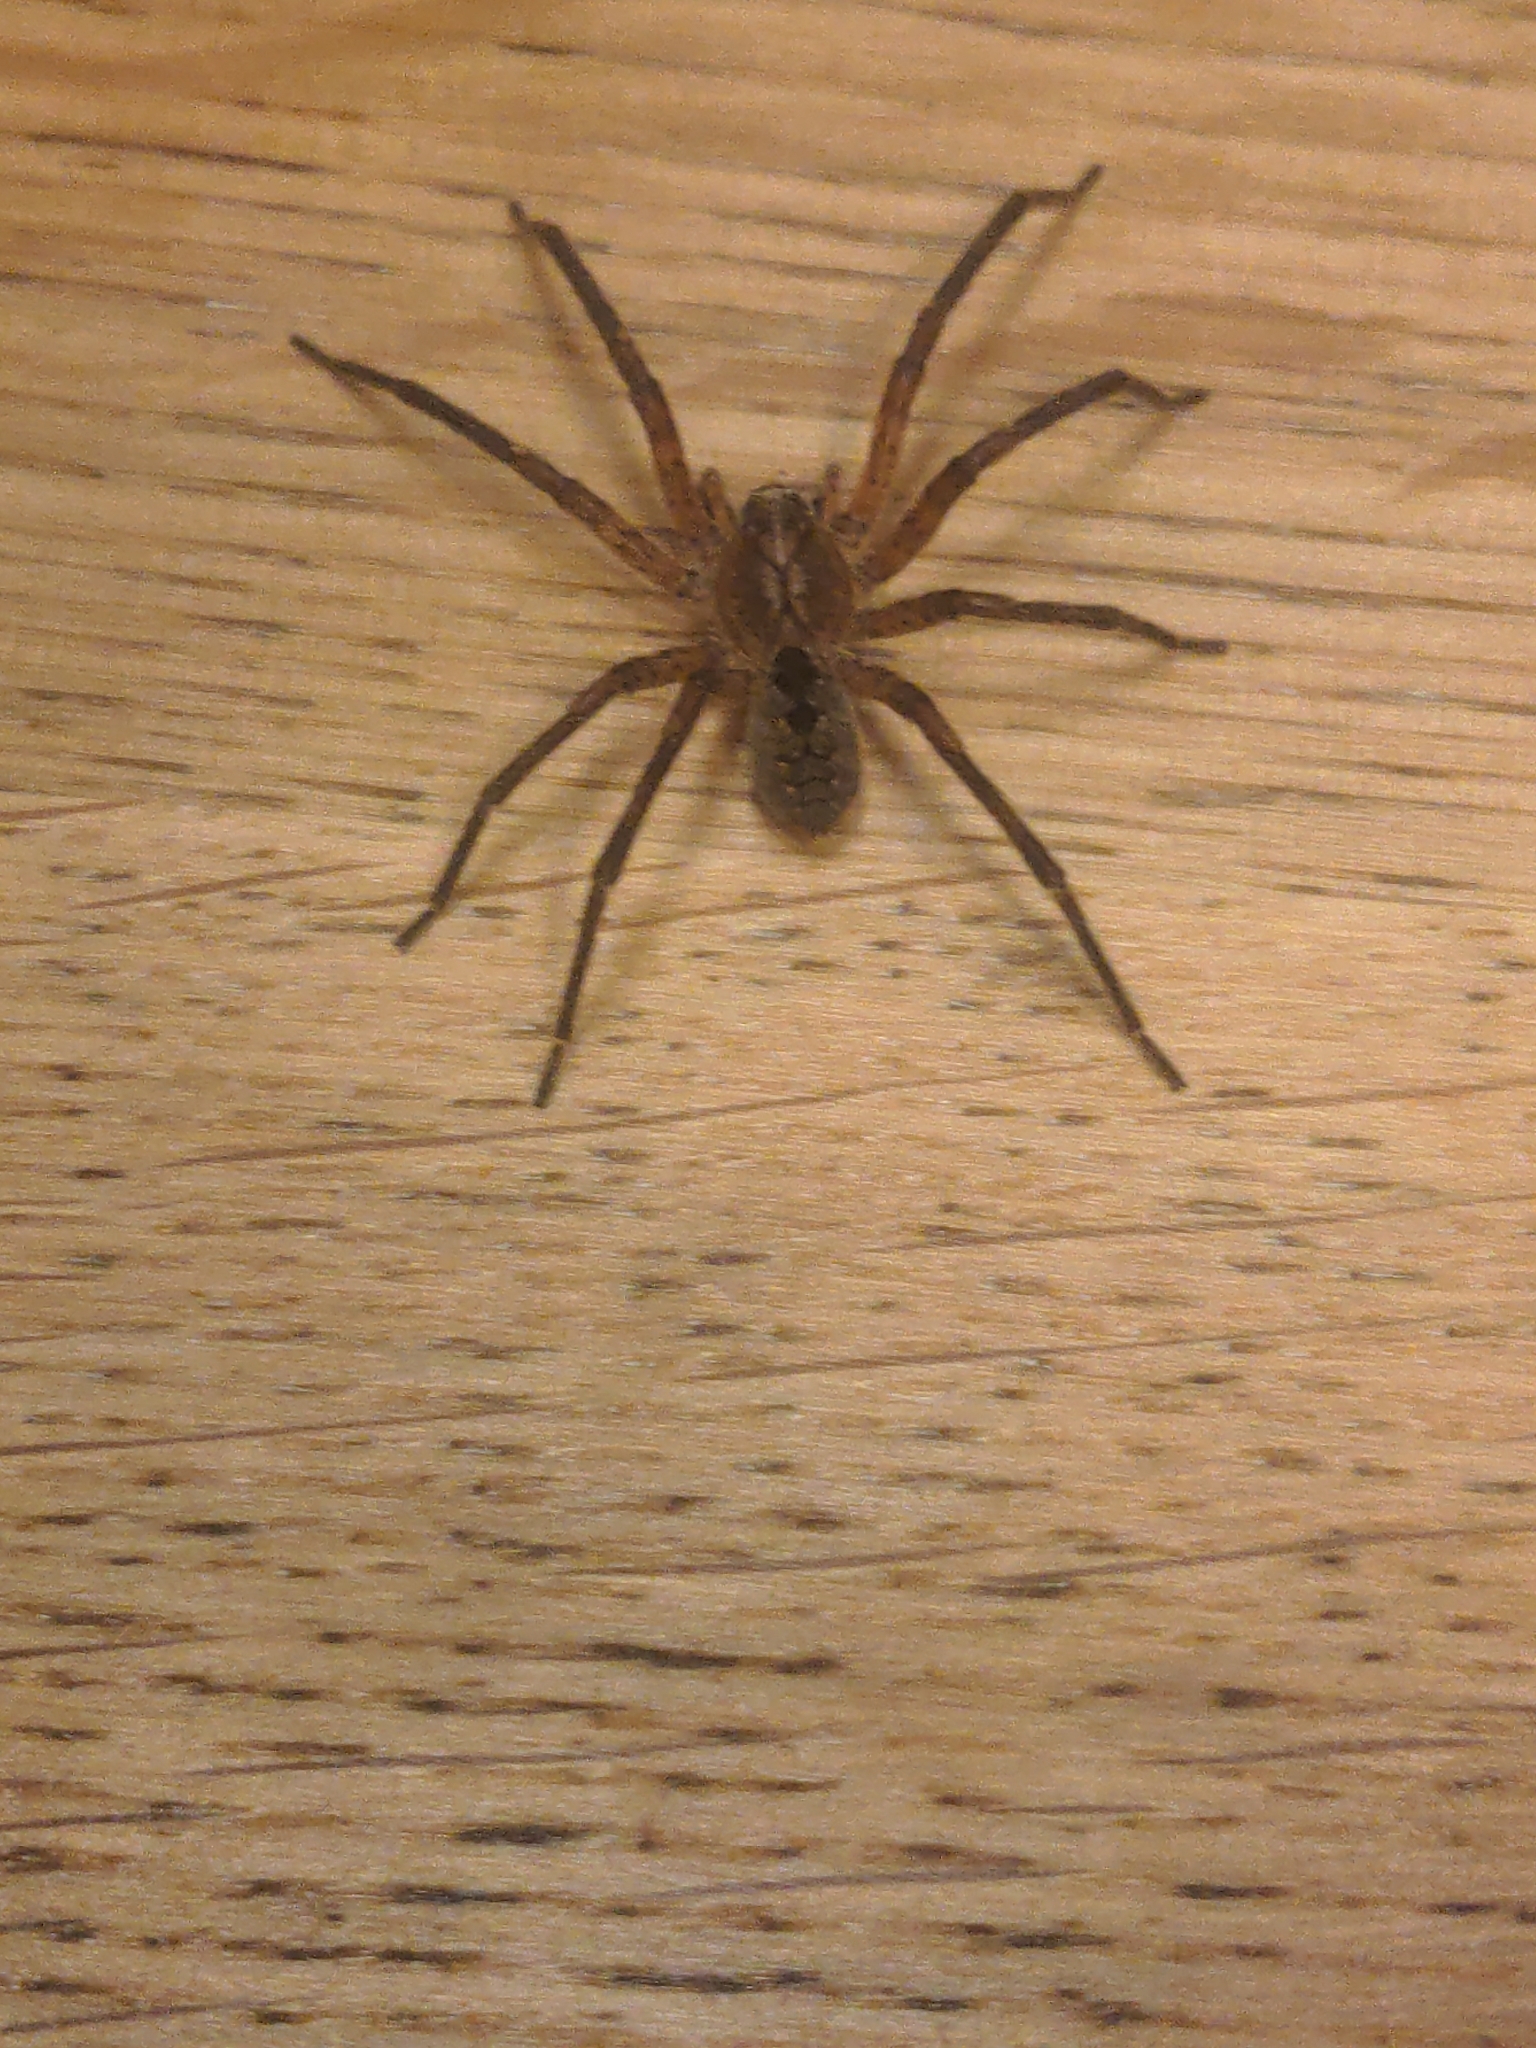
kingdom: Animalia
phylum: Arthropoda
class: Arachnida
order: Araneae
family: Zoropsidae
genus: Zoropsis
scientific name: Zoropsis spinimana
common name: Zoropsid spider
